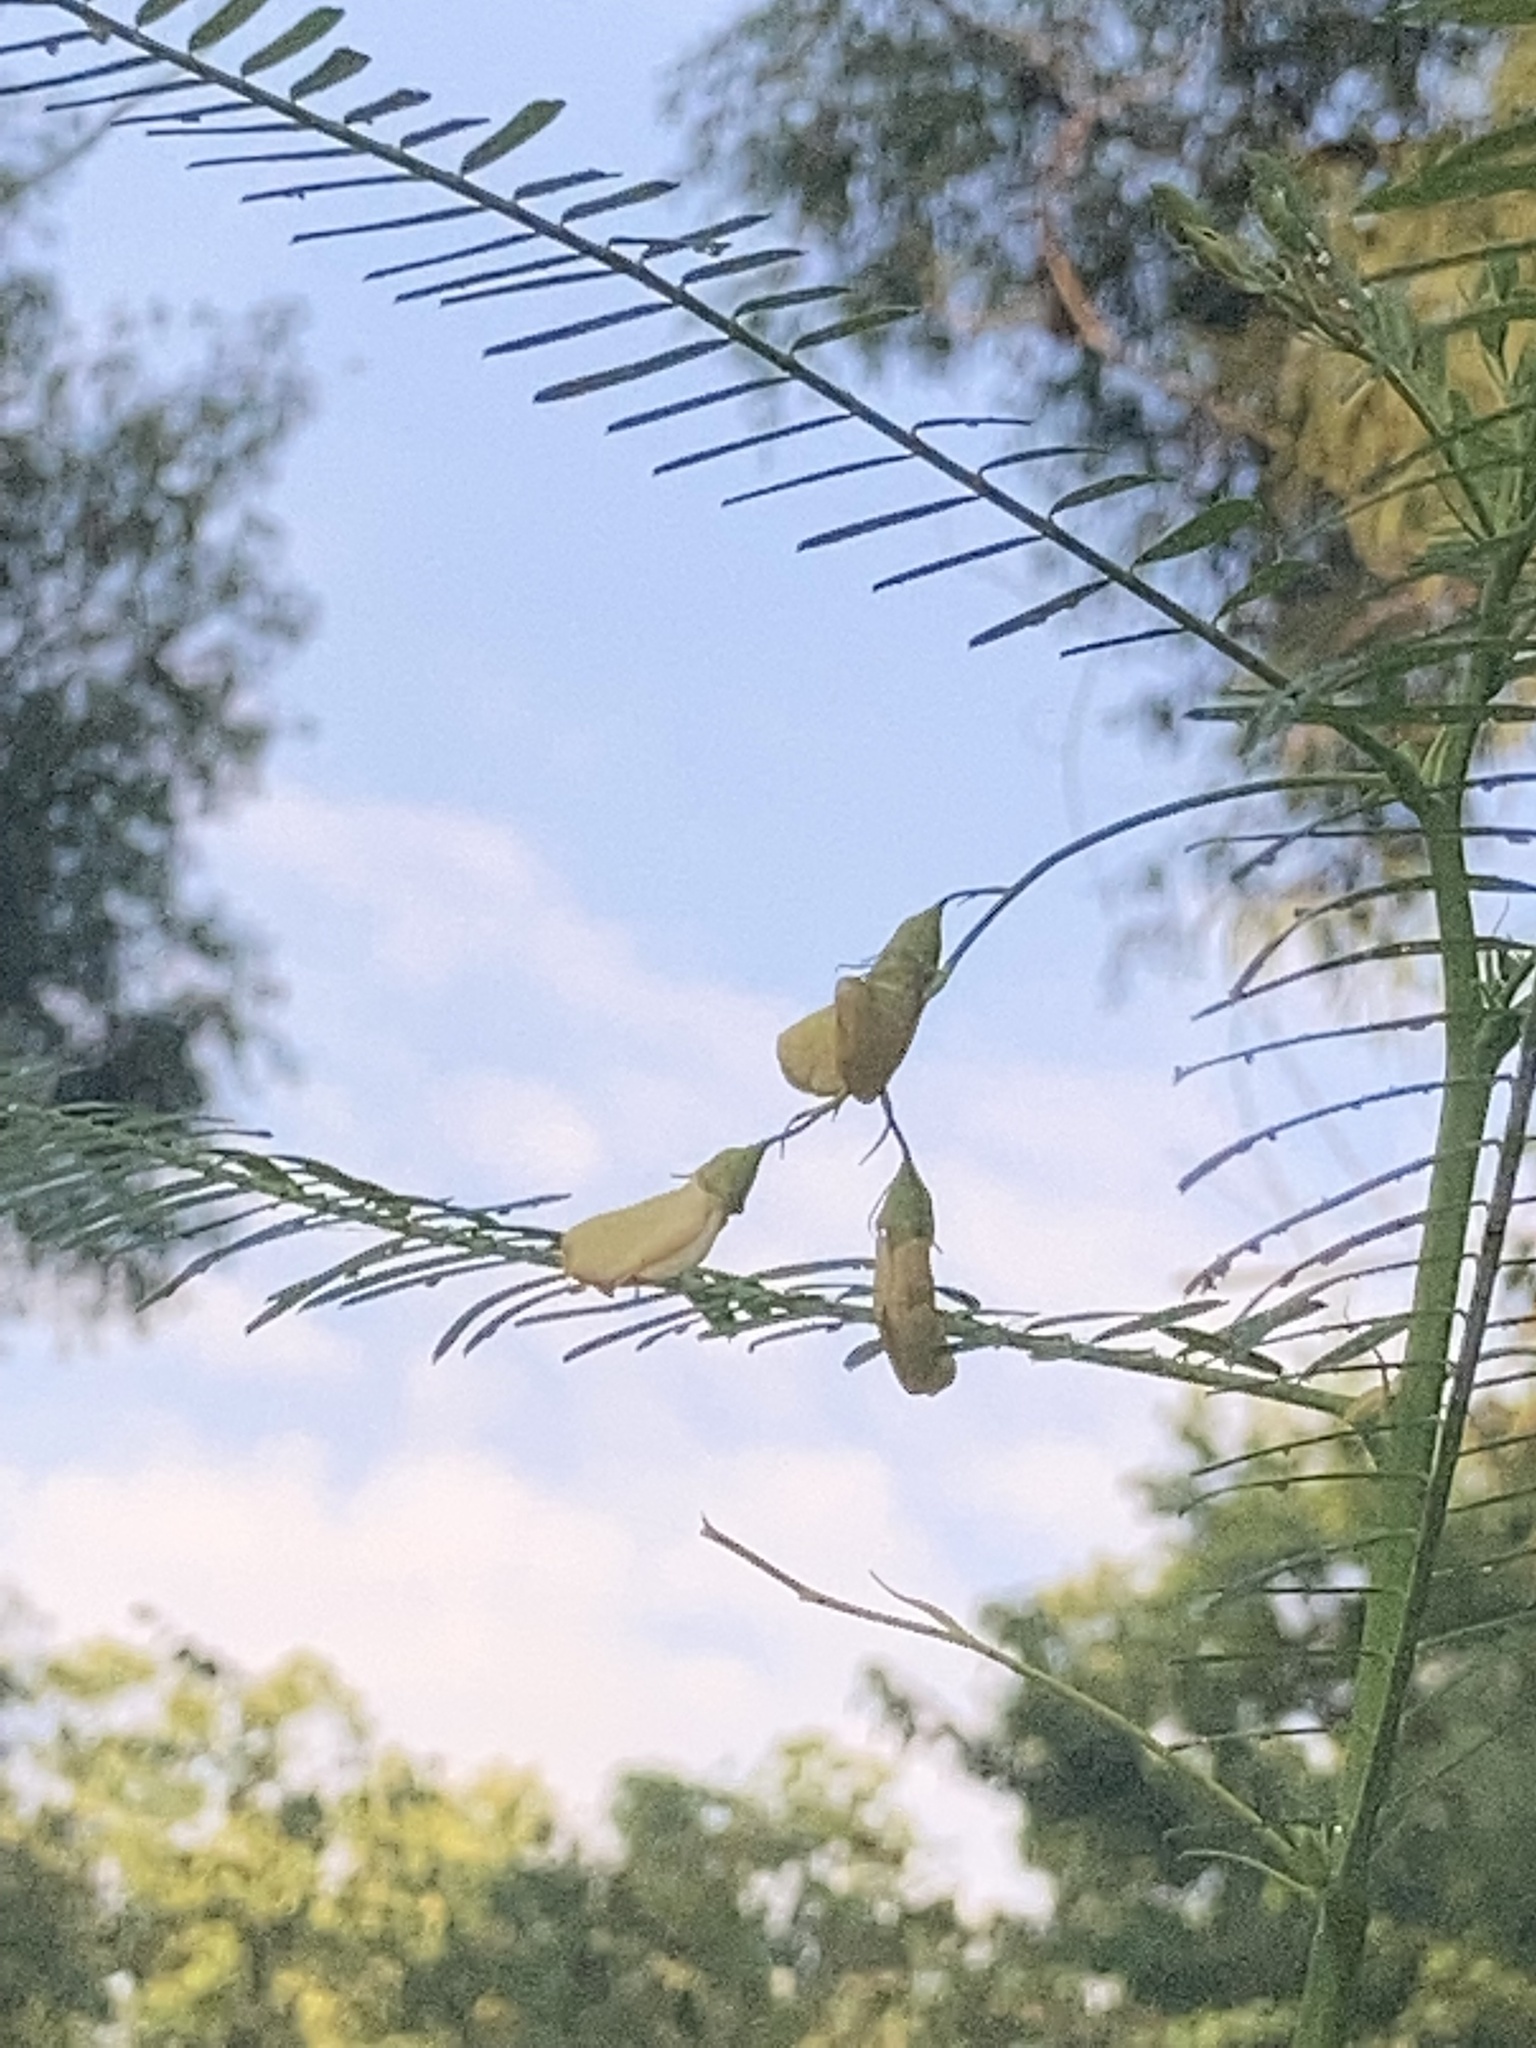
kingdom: Plantae
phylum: Tracheophyta
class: Magnoliopsida
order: Fabales
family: Fabaceae
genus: Sesbania
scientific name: Sesbania herbacea
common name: Bigpod sesbania
